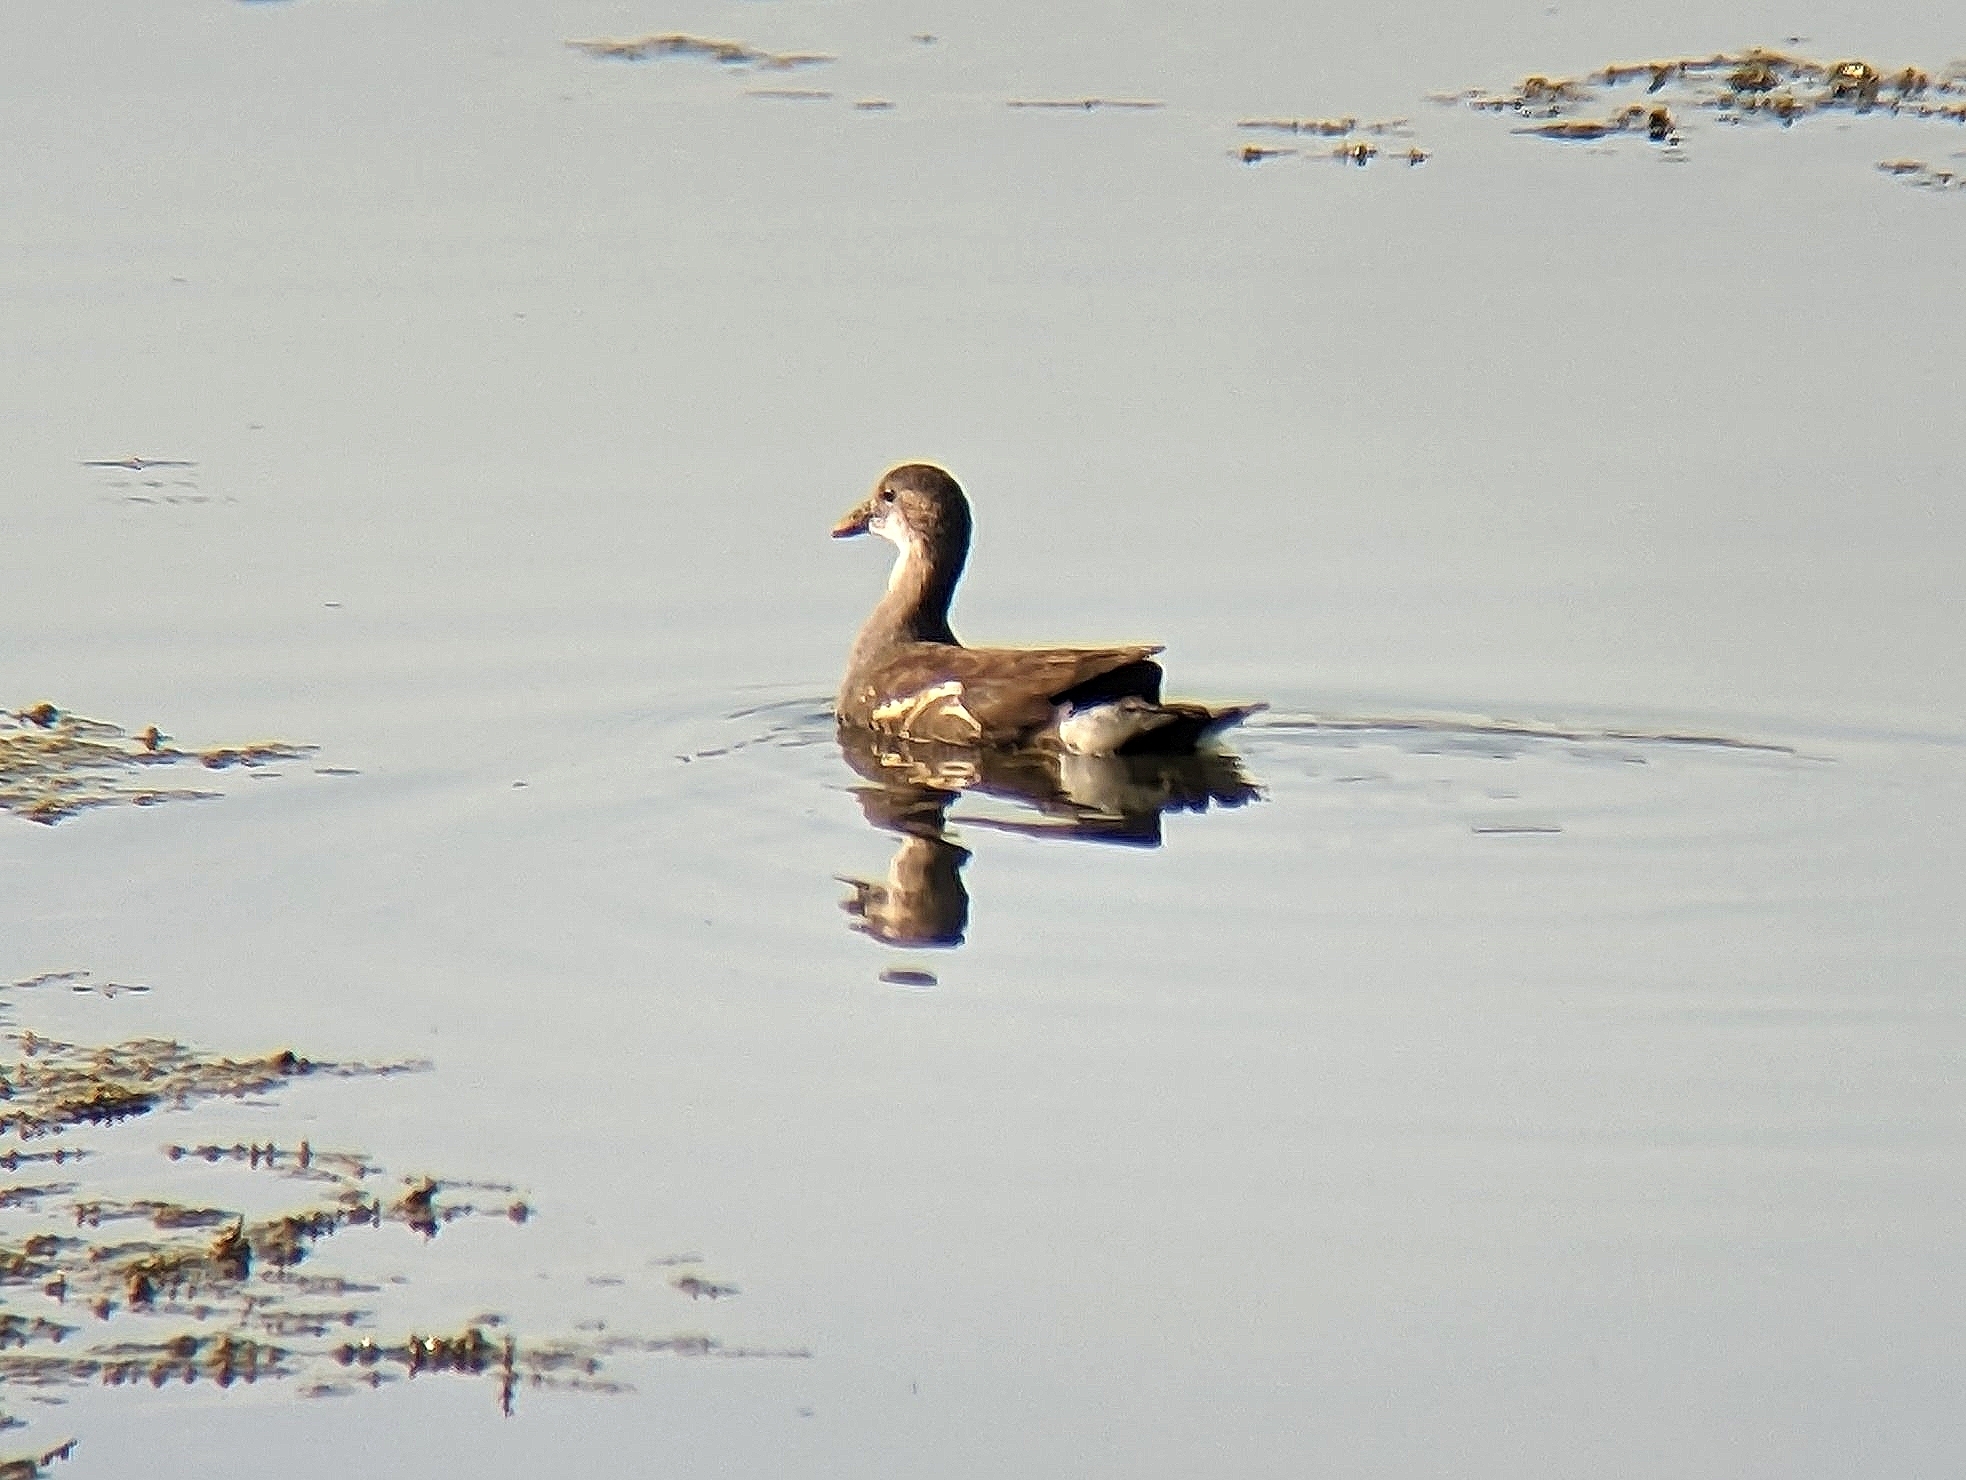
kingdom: Animalia
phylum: Chordata
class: Aves
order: Gruiformes
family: Rallidae
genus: Gallinula
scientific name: Gallinula chloropus
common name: Common moorhen
